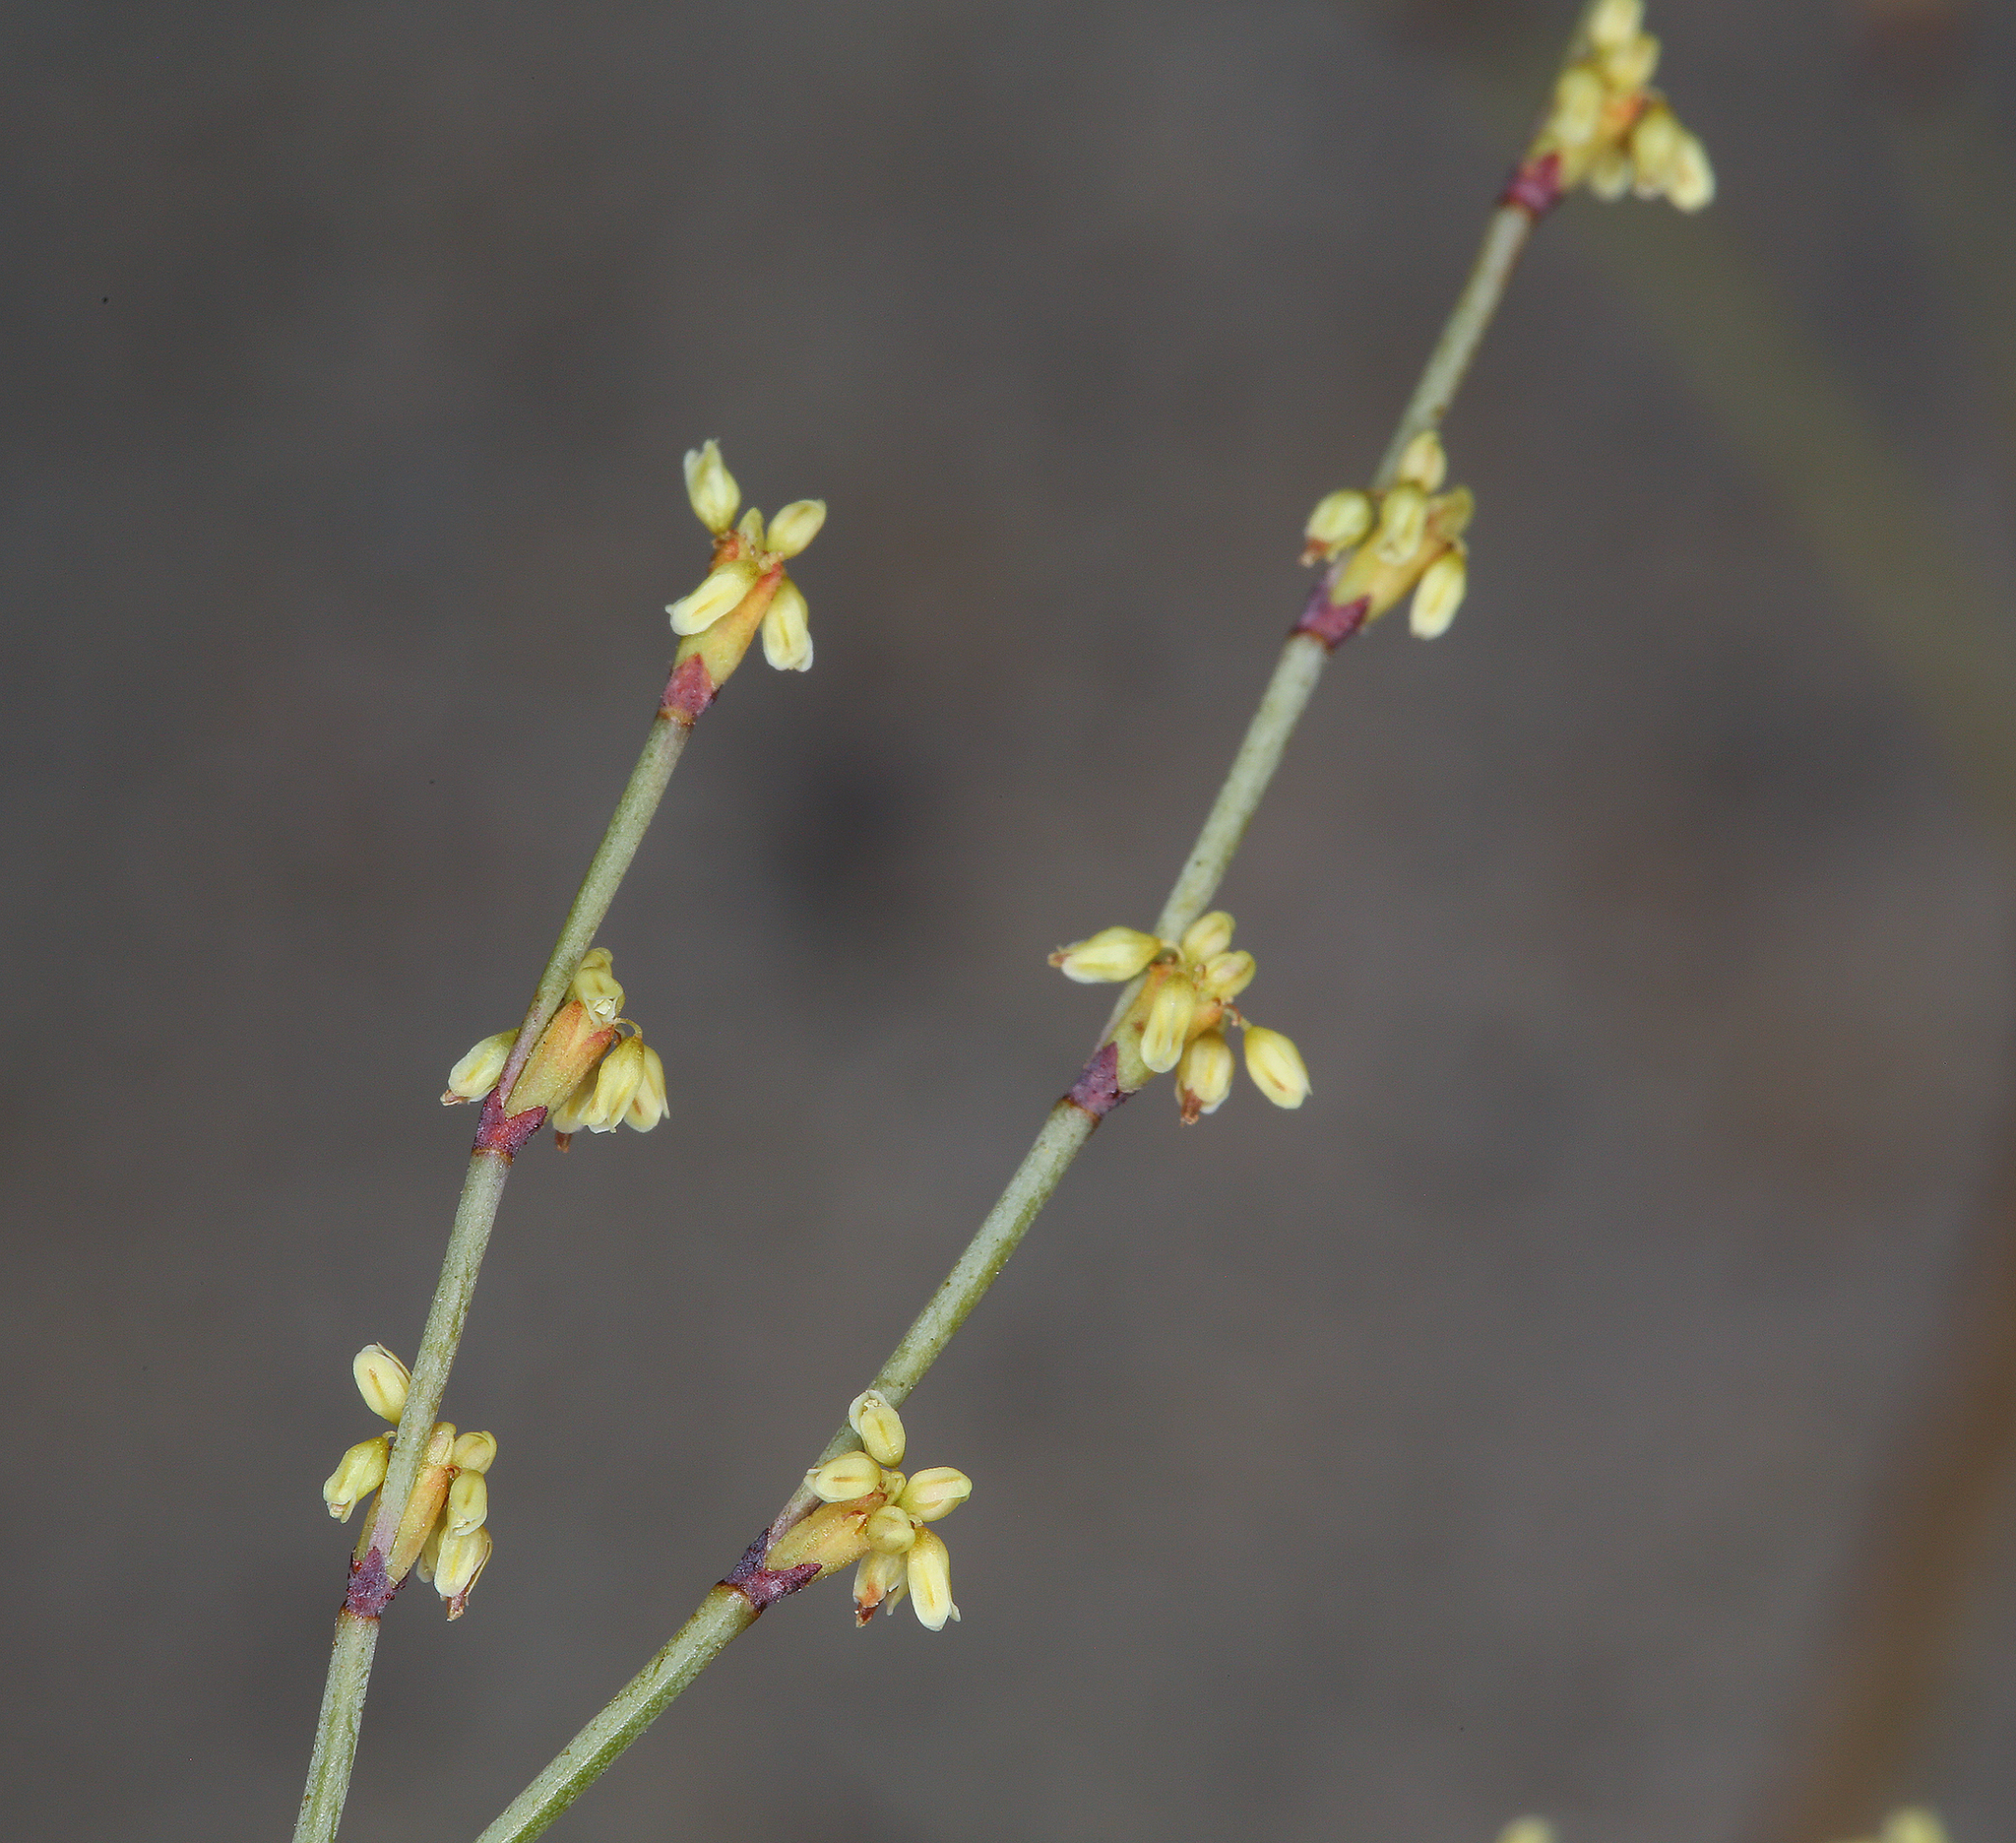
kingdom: Plantae
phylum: Tracheophyta
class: Magnoliopsida
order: Caryophyllales
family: Polygonaceae
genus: Eriogonum
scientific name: Eriogonum brachyanthum
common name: Short-flower wild buckwheat
